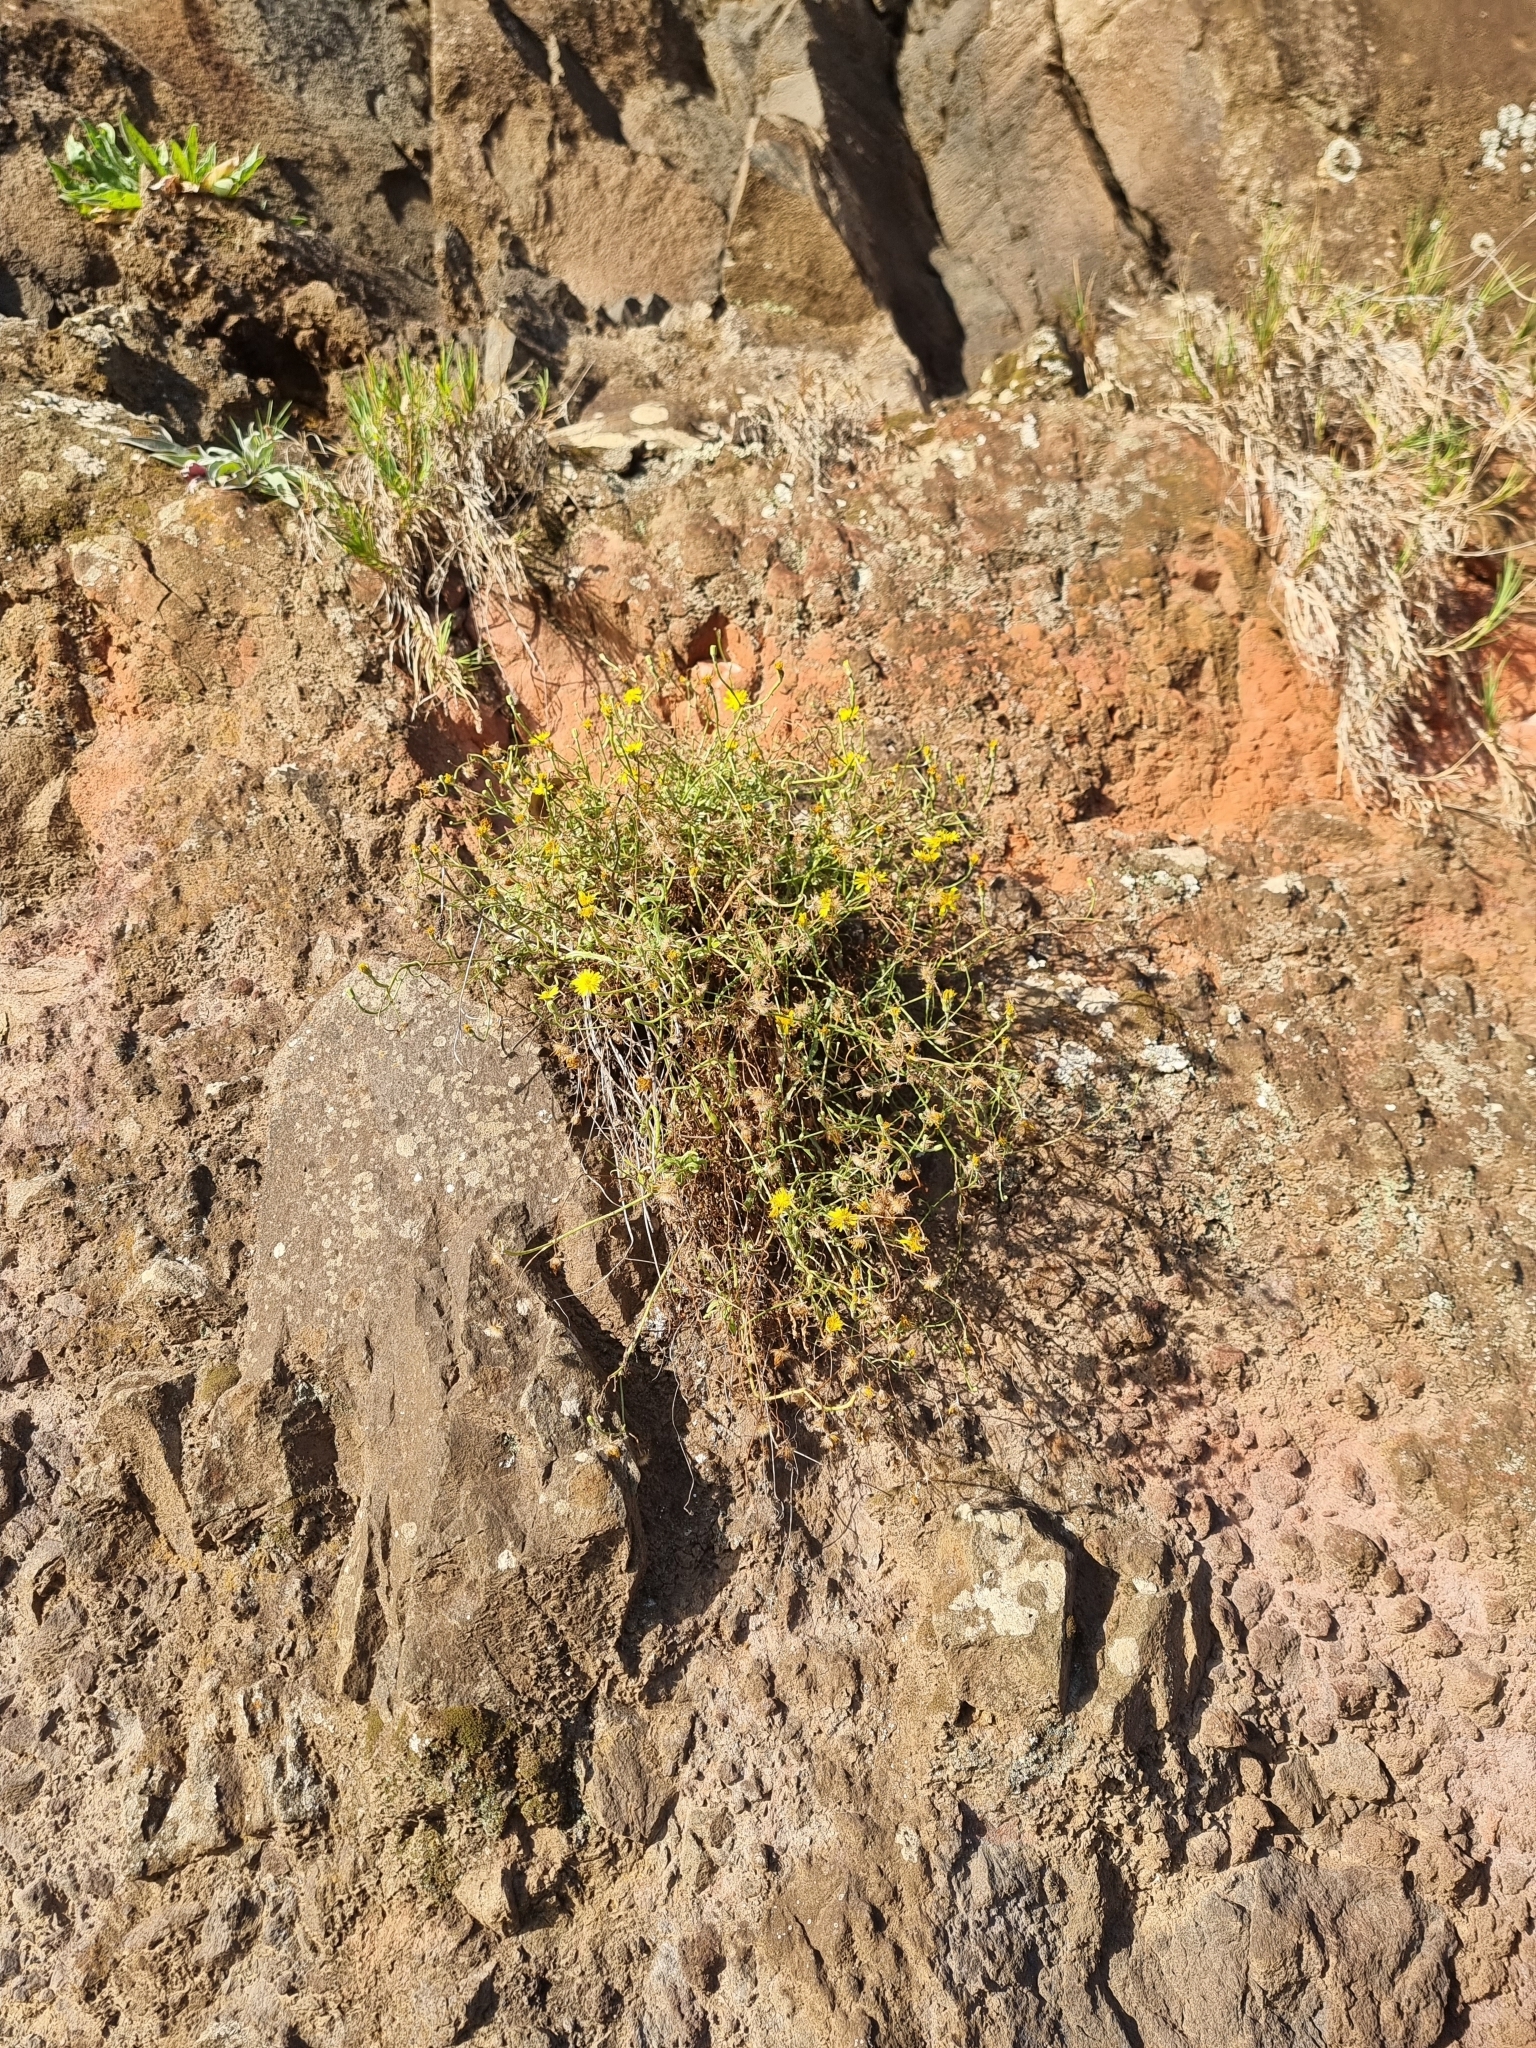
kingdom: Plantae
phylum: Tracheophyta
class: Magnoliopsida
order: Asterales
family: Asteraceae
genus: Tolpis
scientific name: Tolpis succulenta
